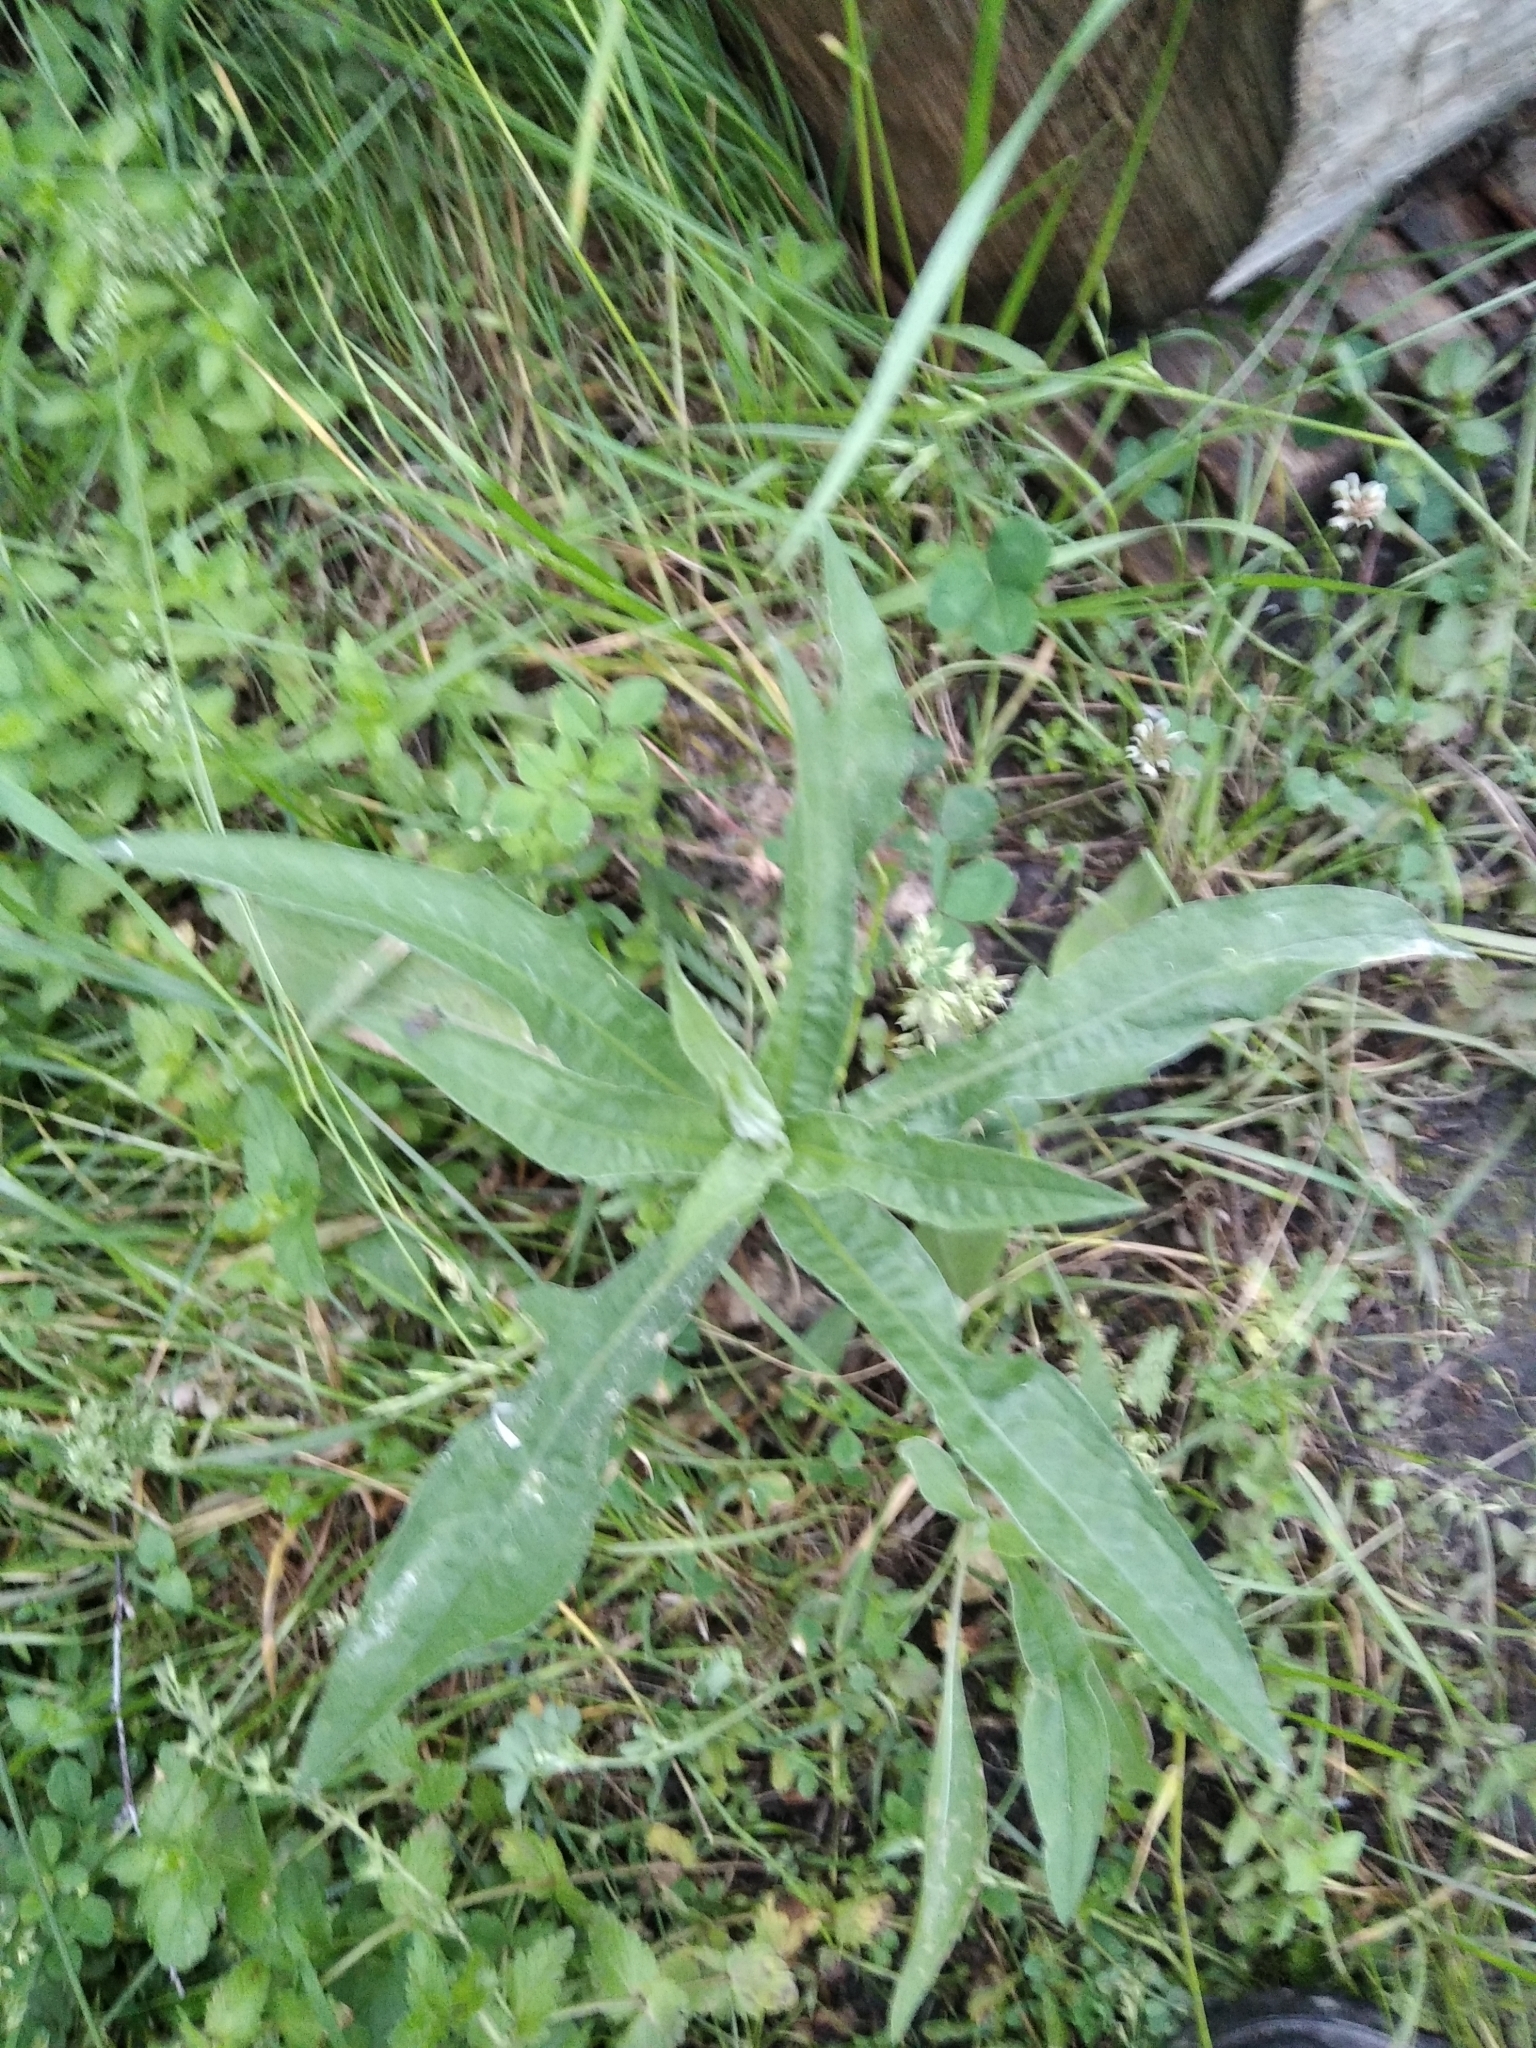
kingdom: Plantae
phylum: Tracheophyta
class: Magnoliopsida
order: Asterales
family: Asteraceae
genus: Centaurea
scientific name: Centaurea jacea
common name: Brown knapweed
